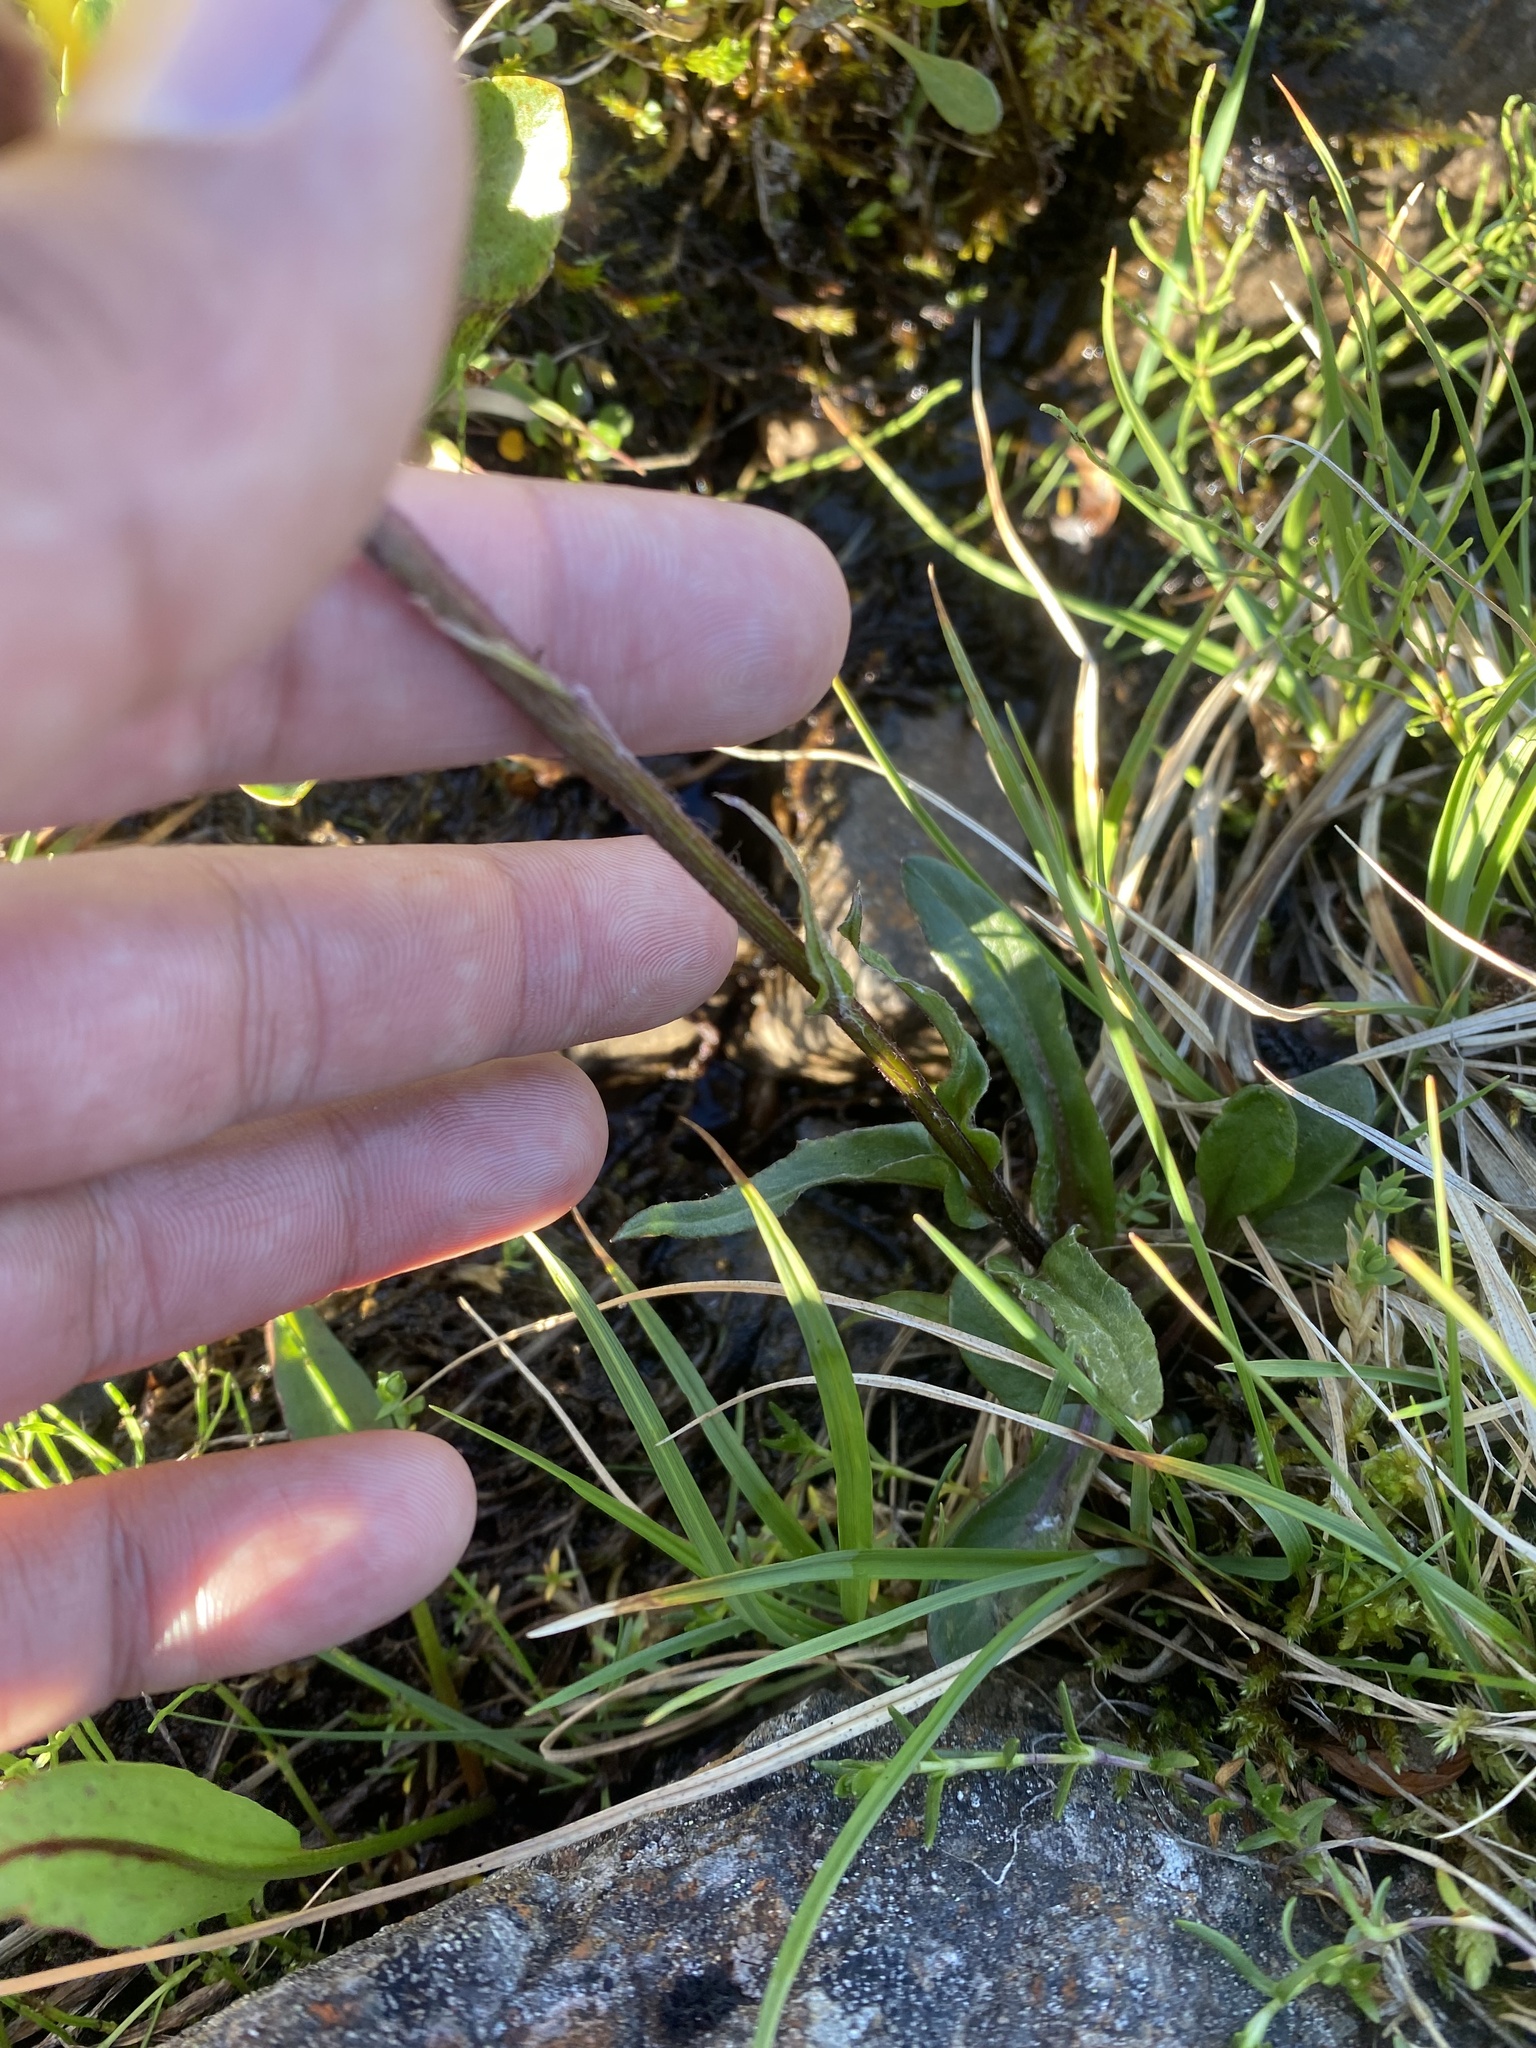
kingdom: Plantae
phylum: Tracheophyta
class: Magnoliopsida
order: Asterales
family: Asteraceae
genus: Tephroseris
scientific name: Tephroseris integrifolia
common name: Field fleawort
